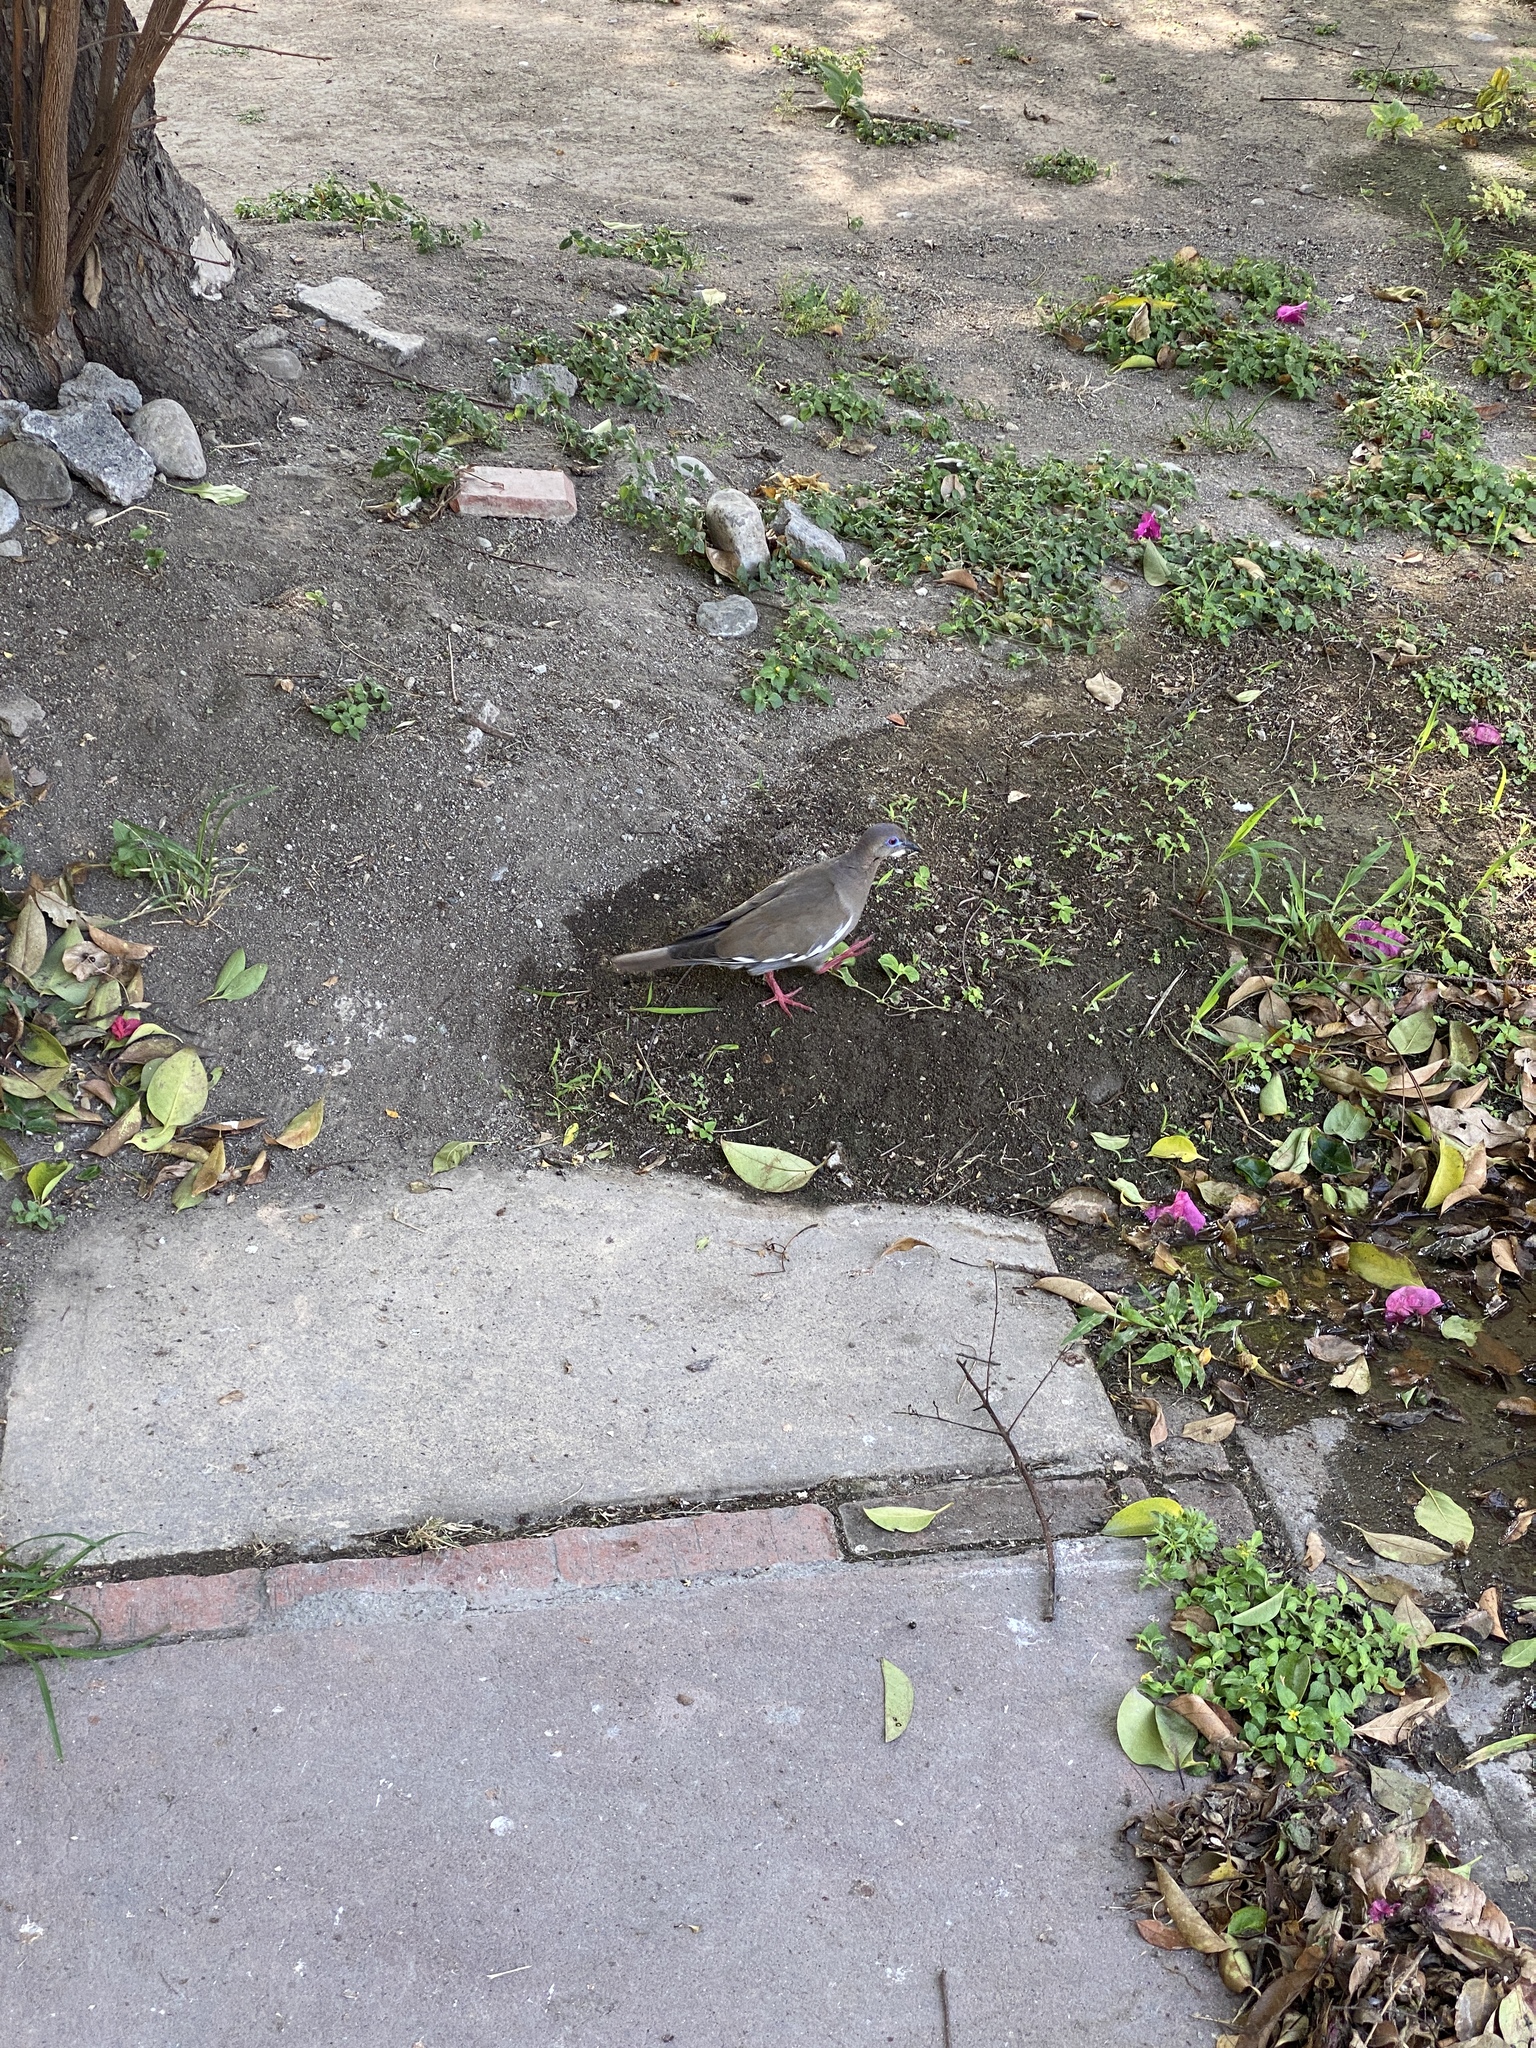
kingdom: Animalia
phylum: Chordata
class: Aves
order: Columbiformes
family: Columbidae
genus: Zenaida
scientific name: Zenaida asiatica
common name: White-winged dove
